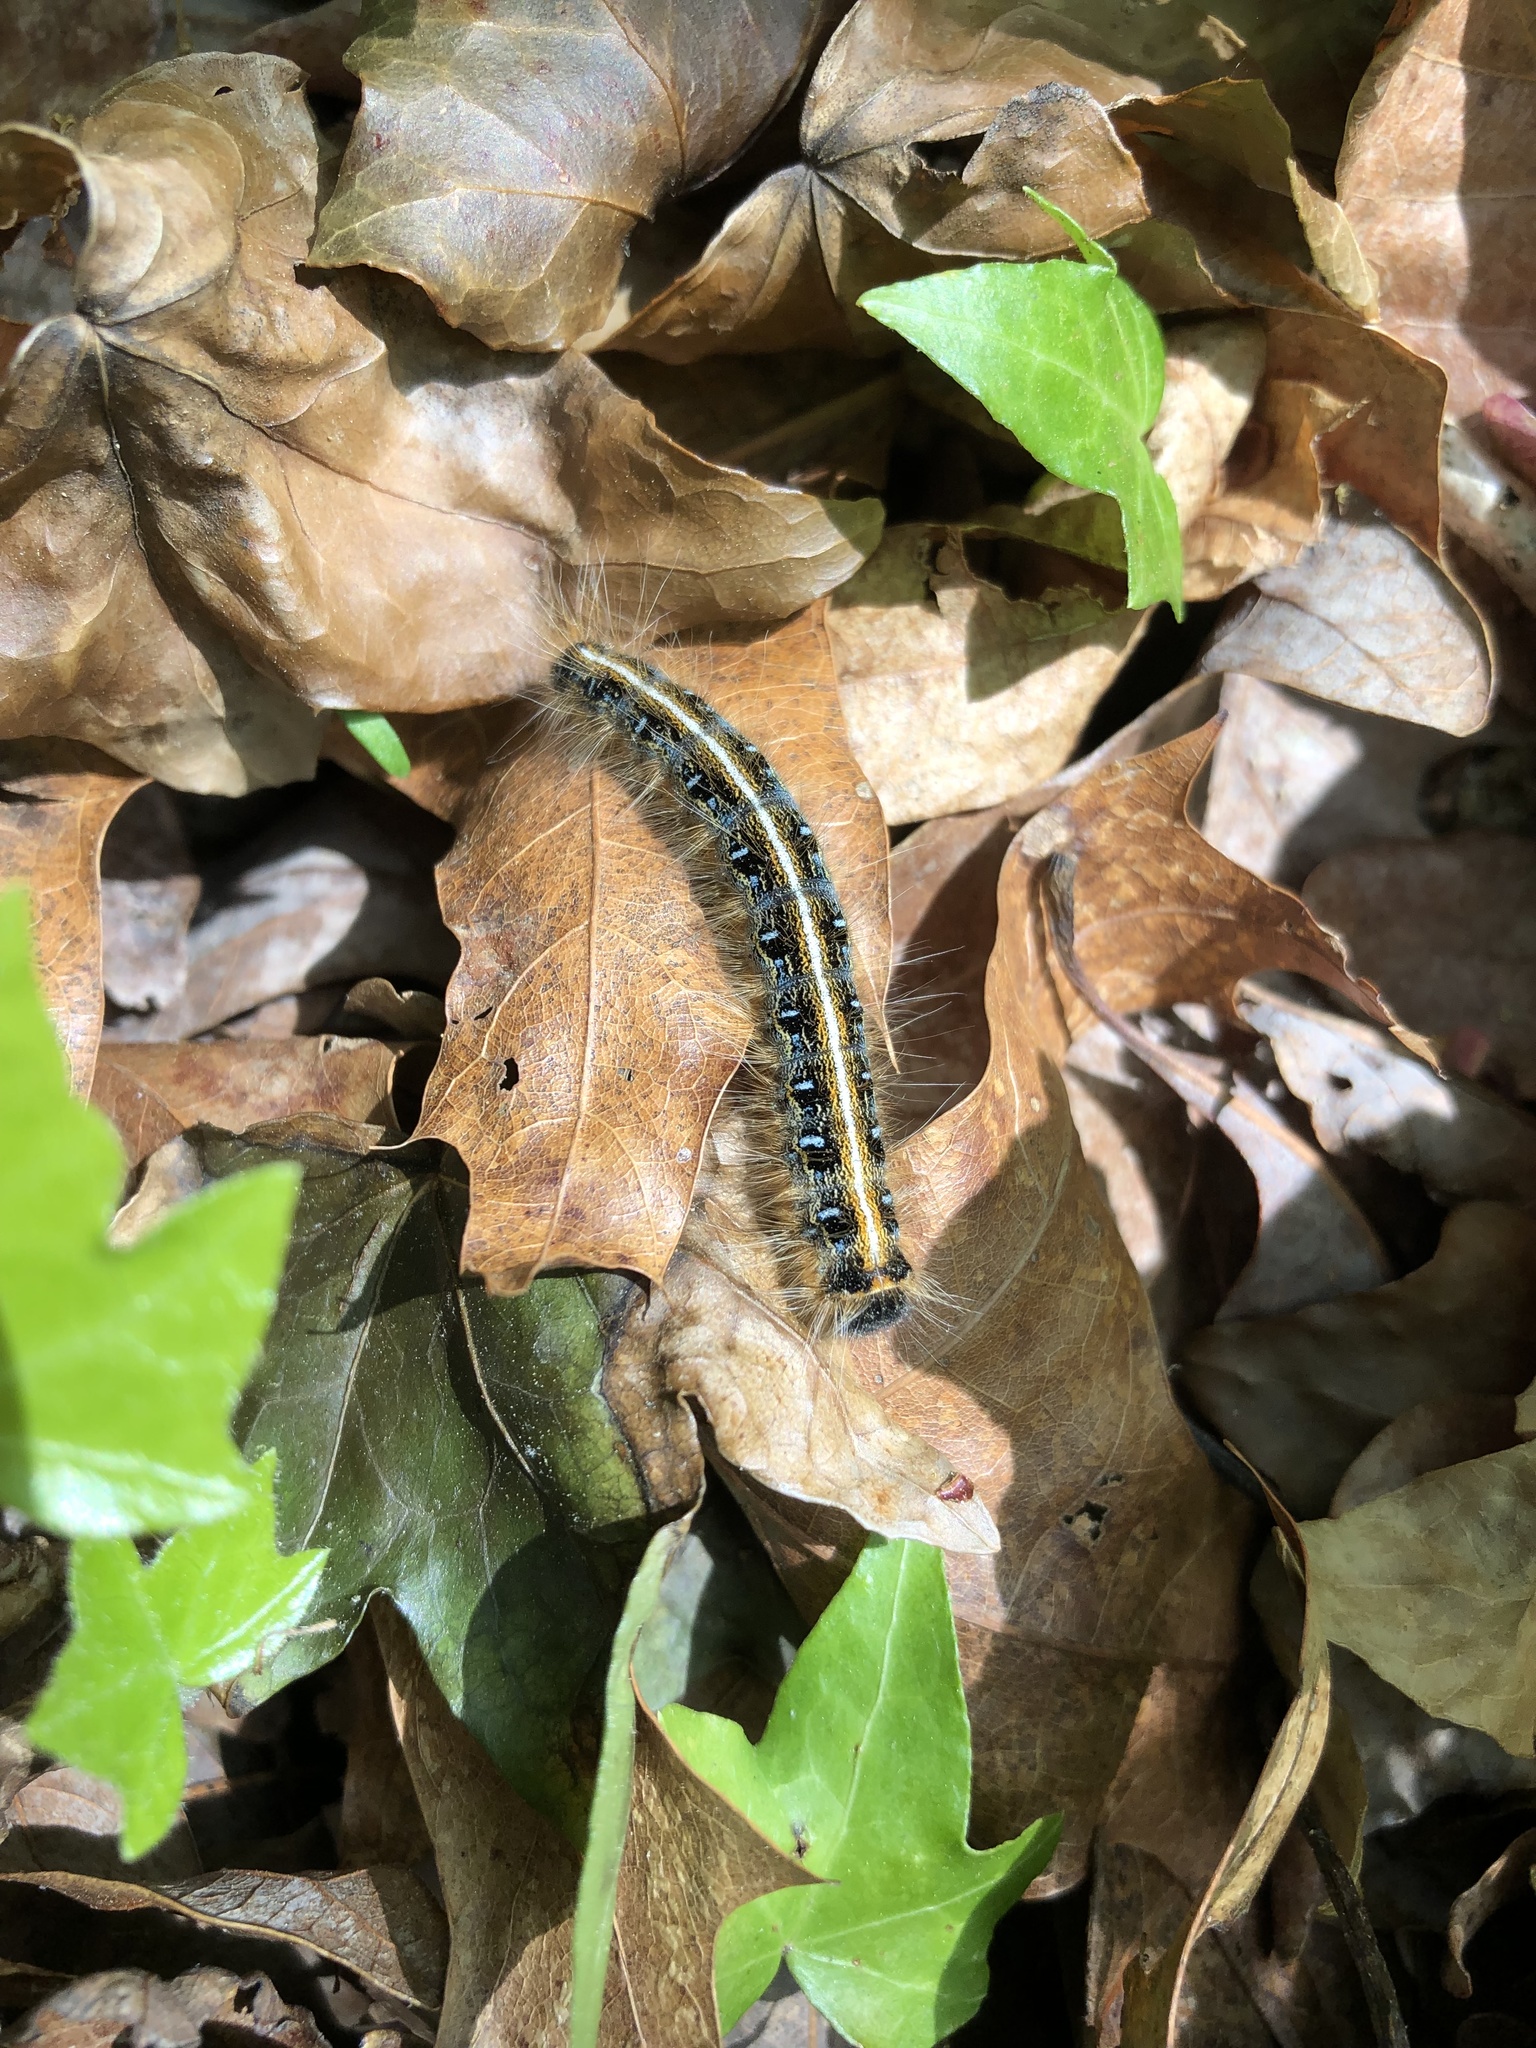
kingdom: Animalia
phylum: Arthropoda
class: Insecta
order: Lepidoptera
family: Lasiocampidae
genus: Malacosoma
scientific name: Malacosoma americana
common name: Eastern tent caterpillar moth
